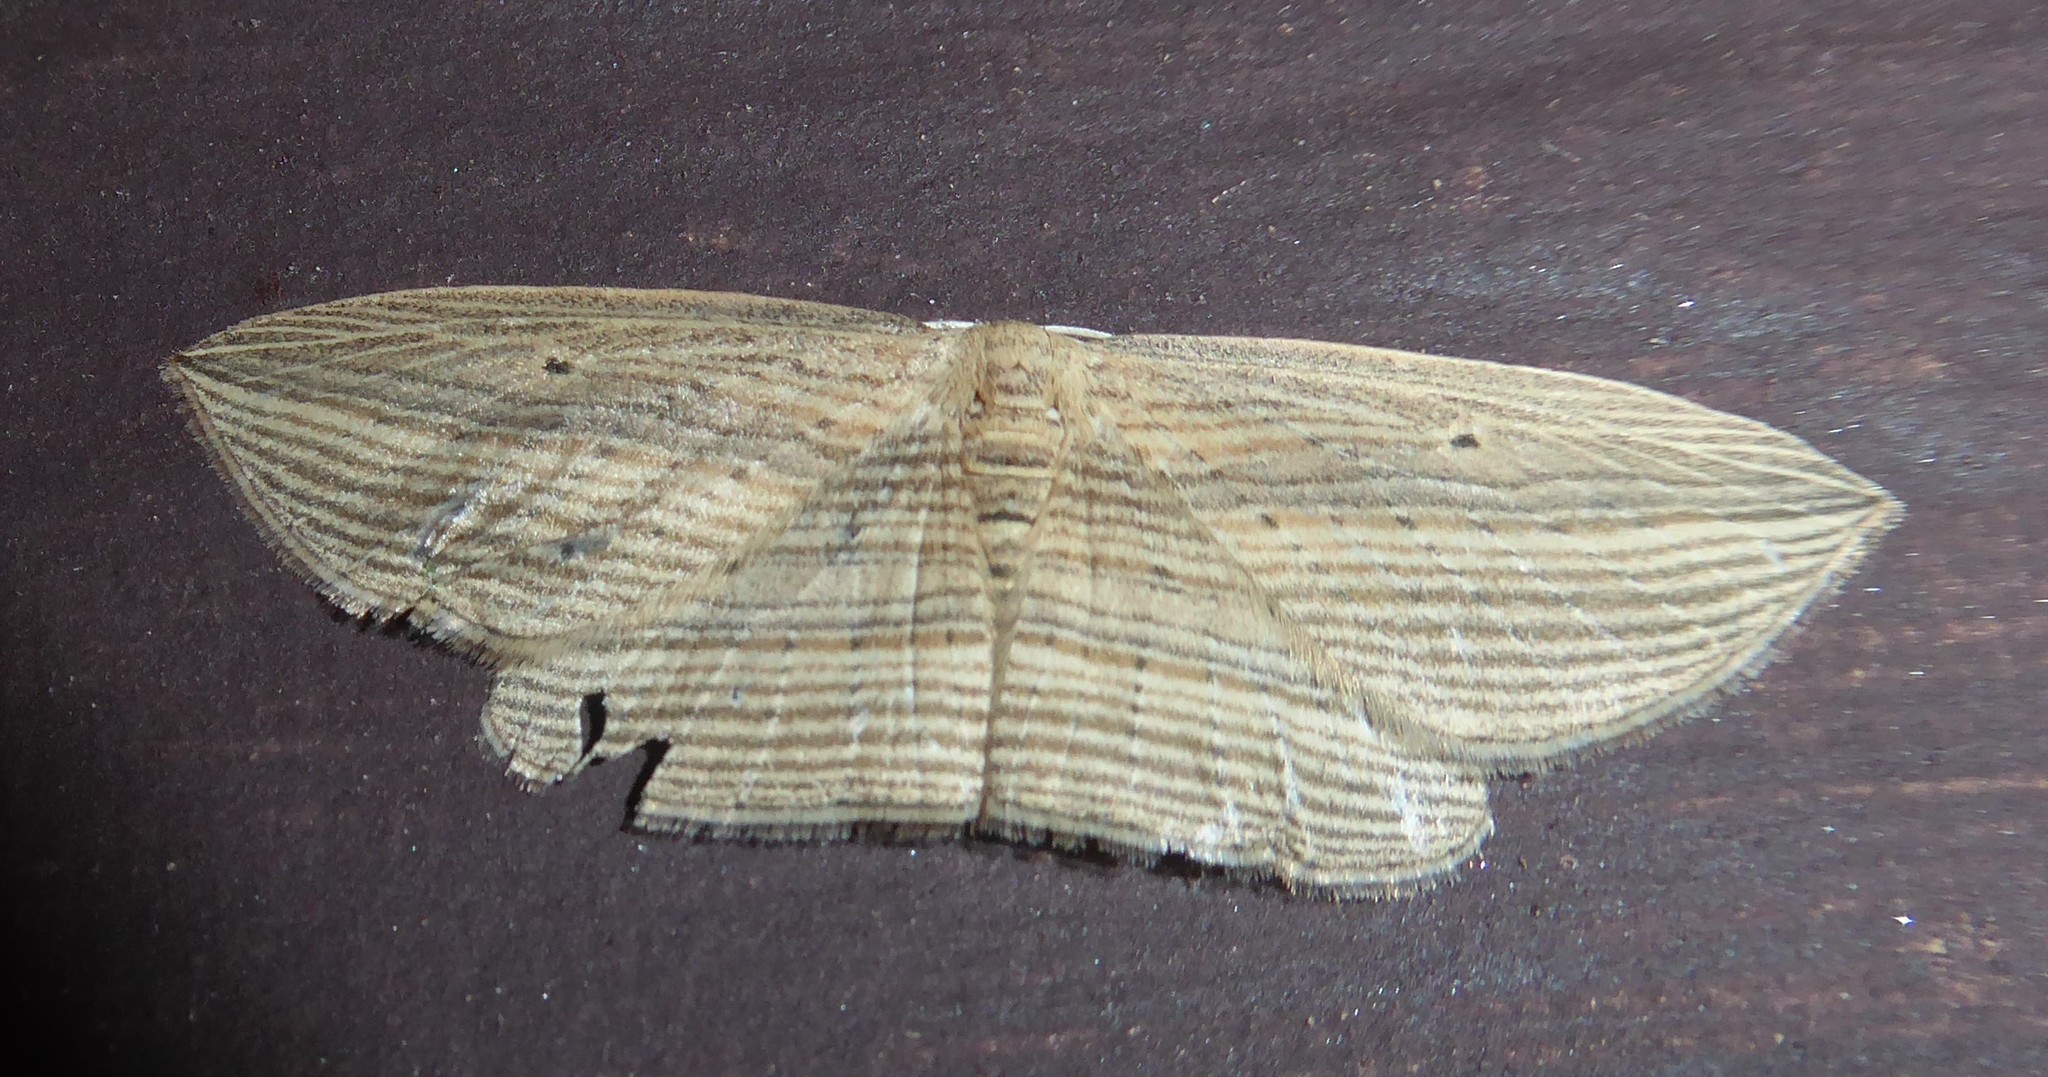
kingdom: Animalia
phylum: Arthropoda
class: Insecta
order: Lepidoptera
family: Geometridae
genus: Epiphryne
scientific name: Epiphryne verriculata
